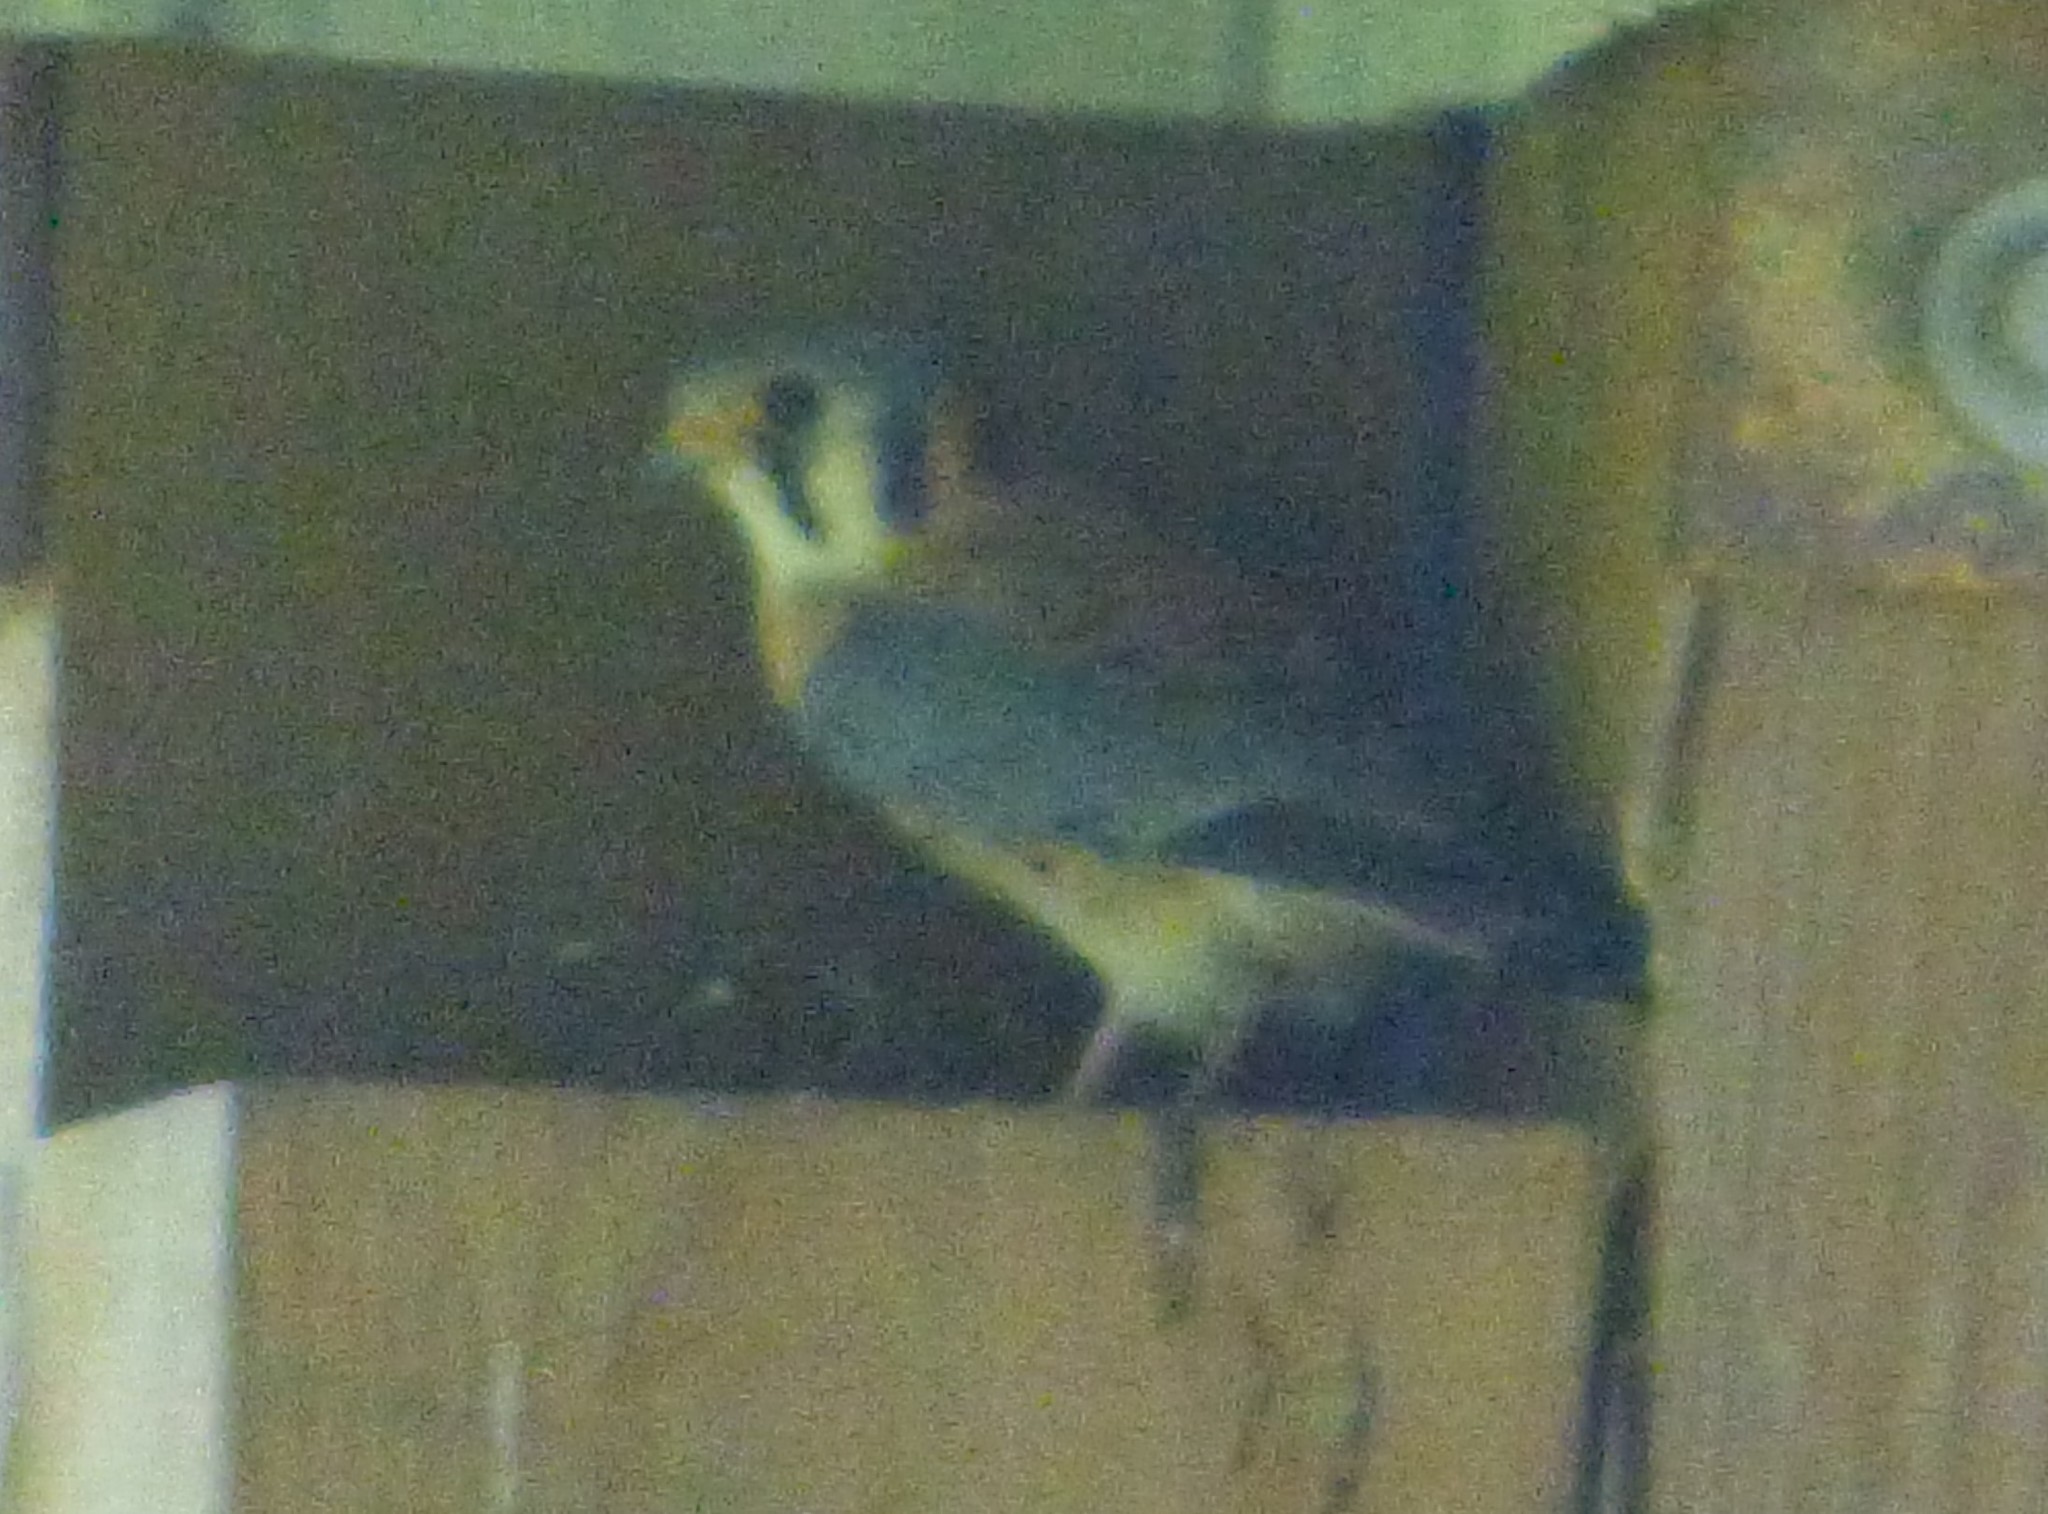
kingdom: Animalia
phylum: Chordata
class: Aves
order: Falconiformes
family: Falconidae
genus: Falco
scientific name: Falco sparverius
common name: American kestrel
